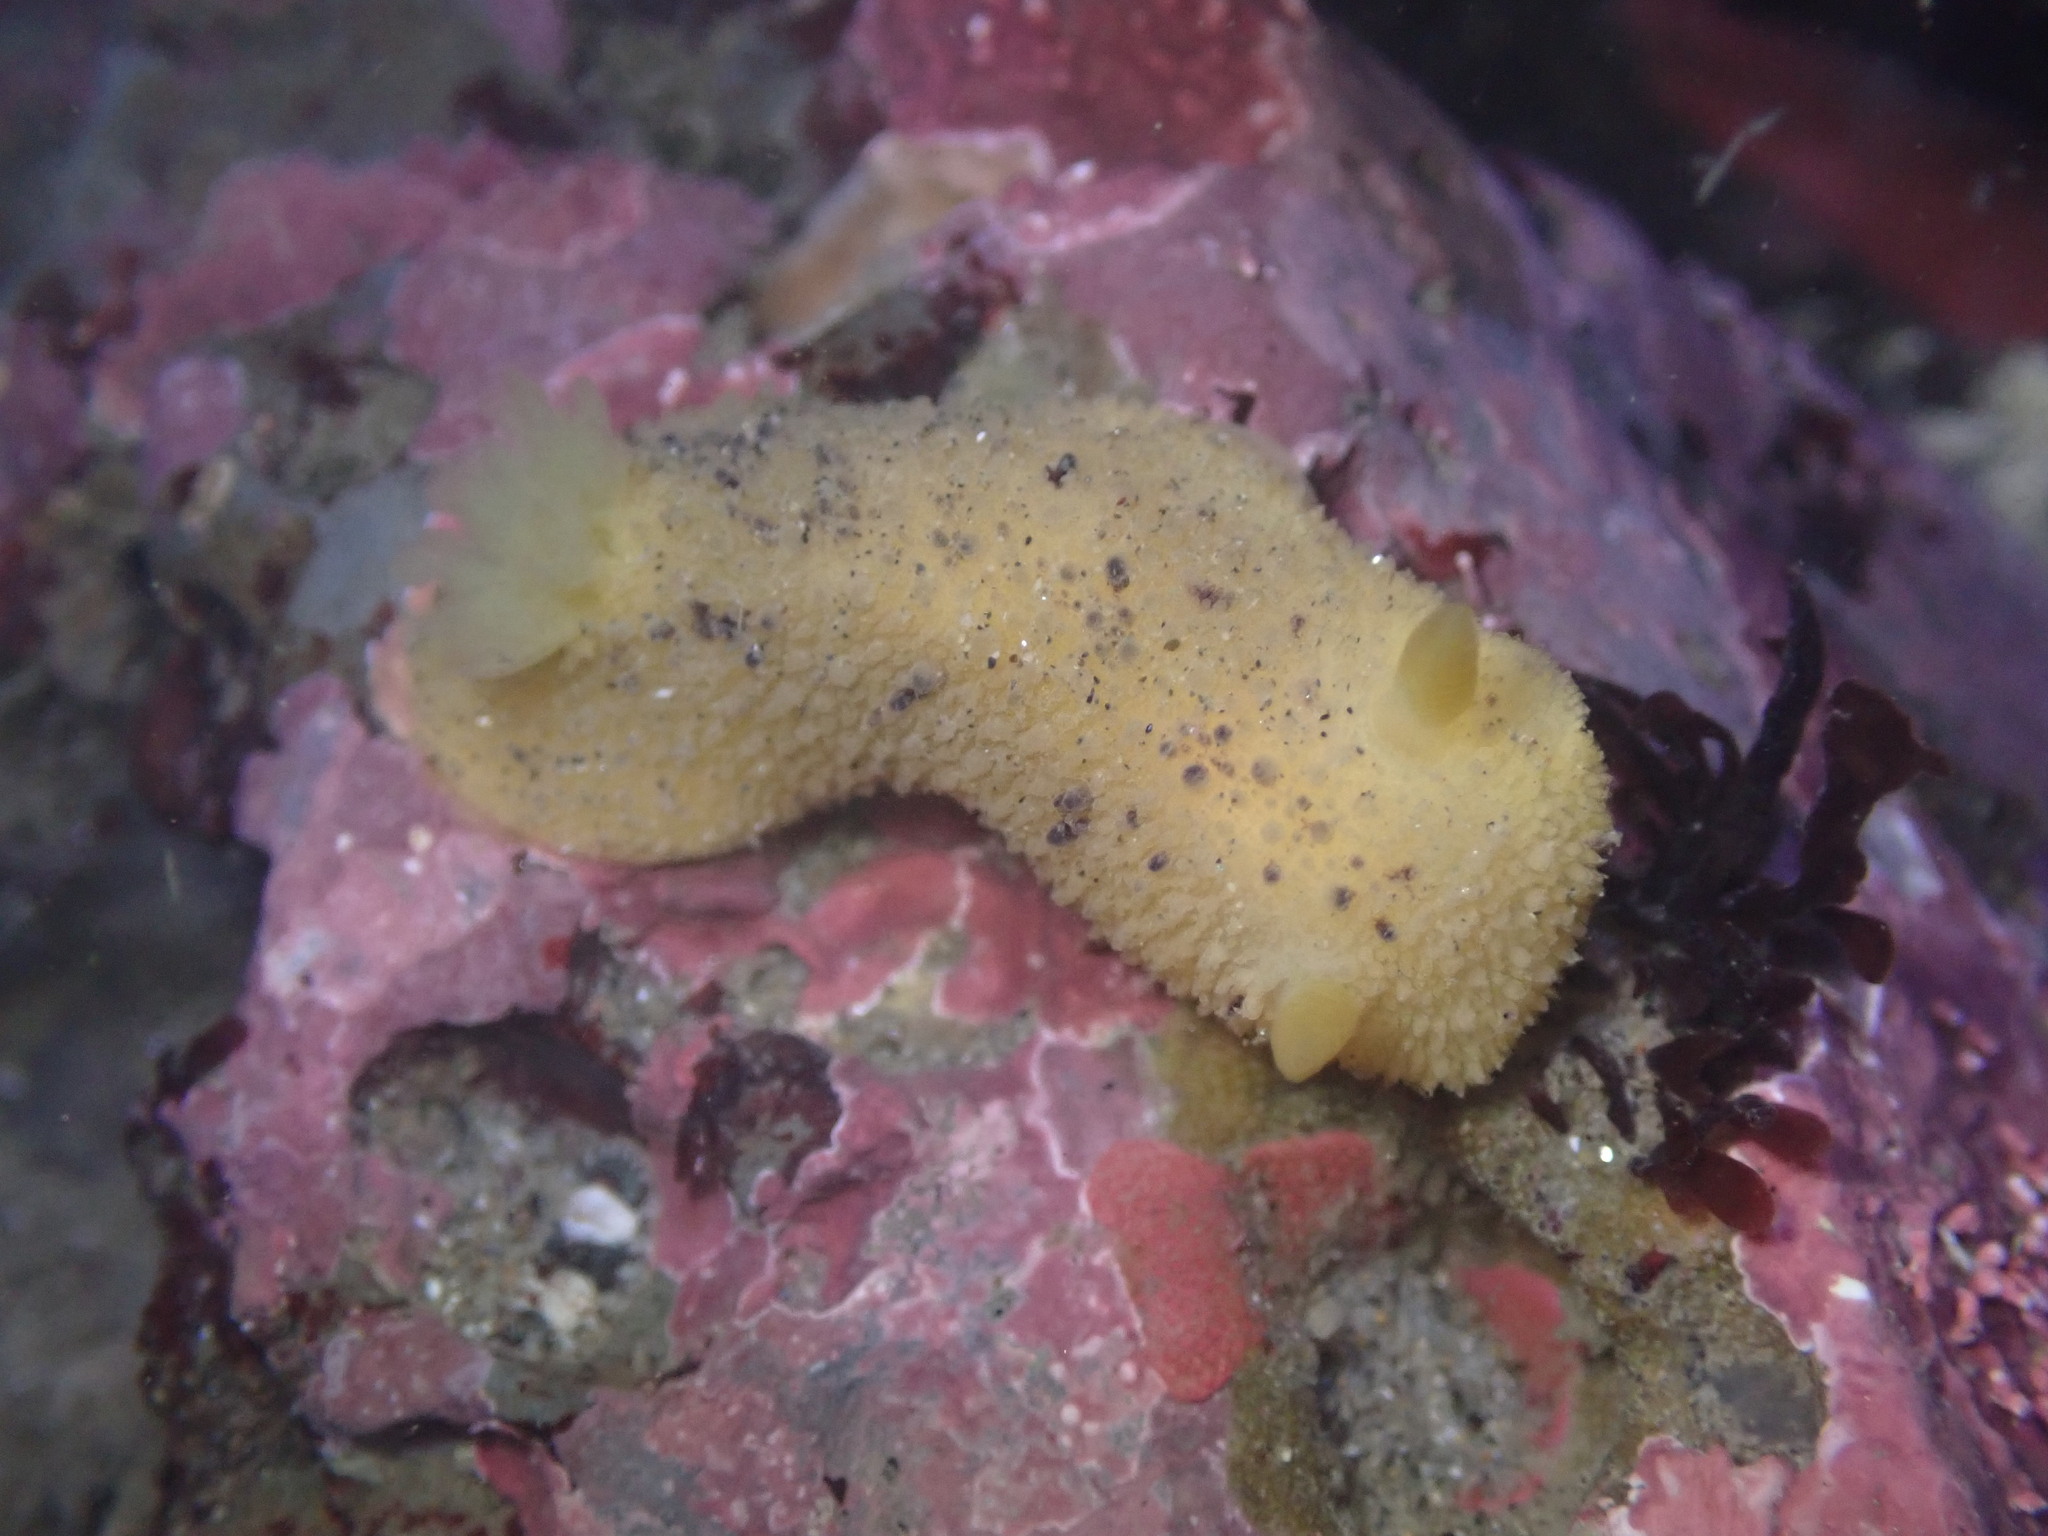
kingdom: Animalia
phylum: Mollusca
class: Gastropoda
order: Nudibranchia
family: Dorididae
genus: Doris
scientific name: Doris montereyensis
